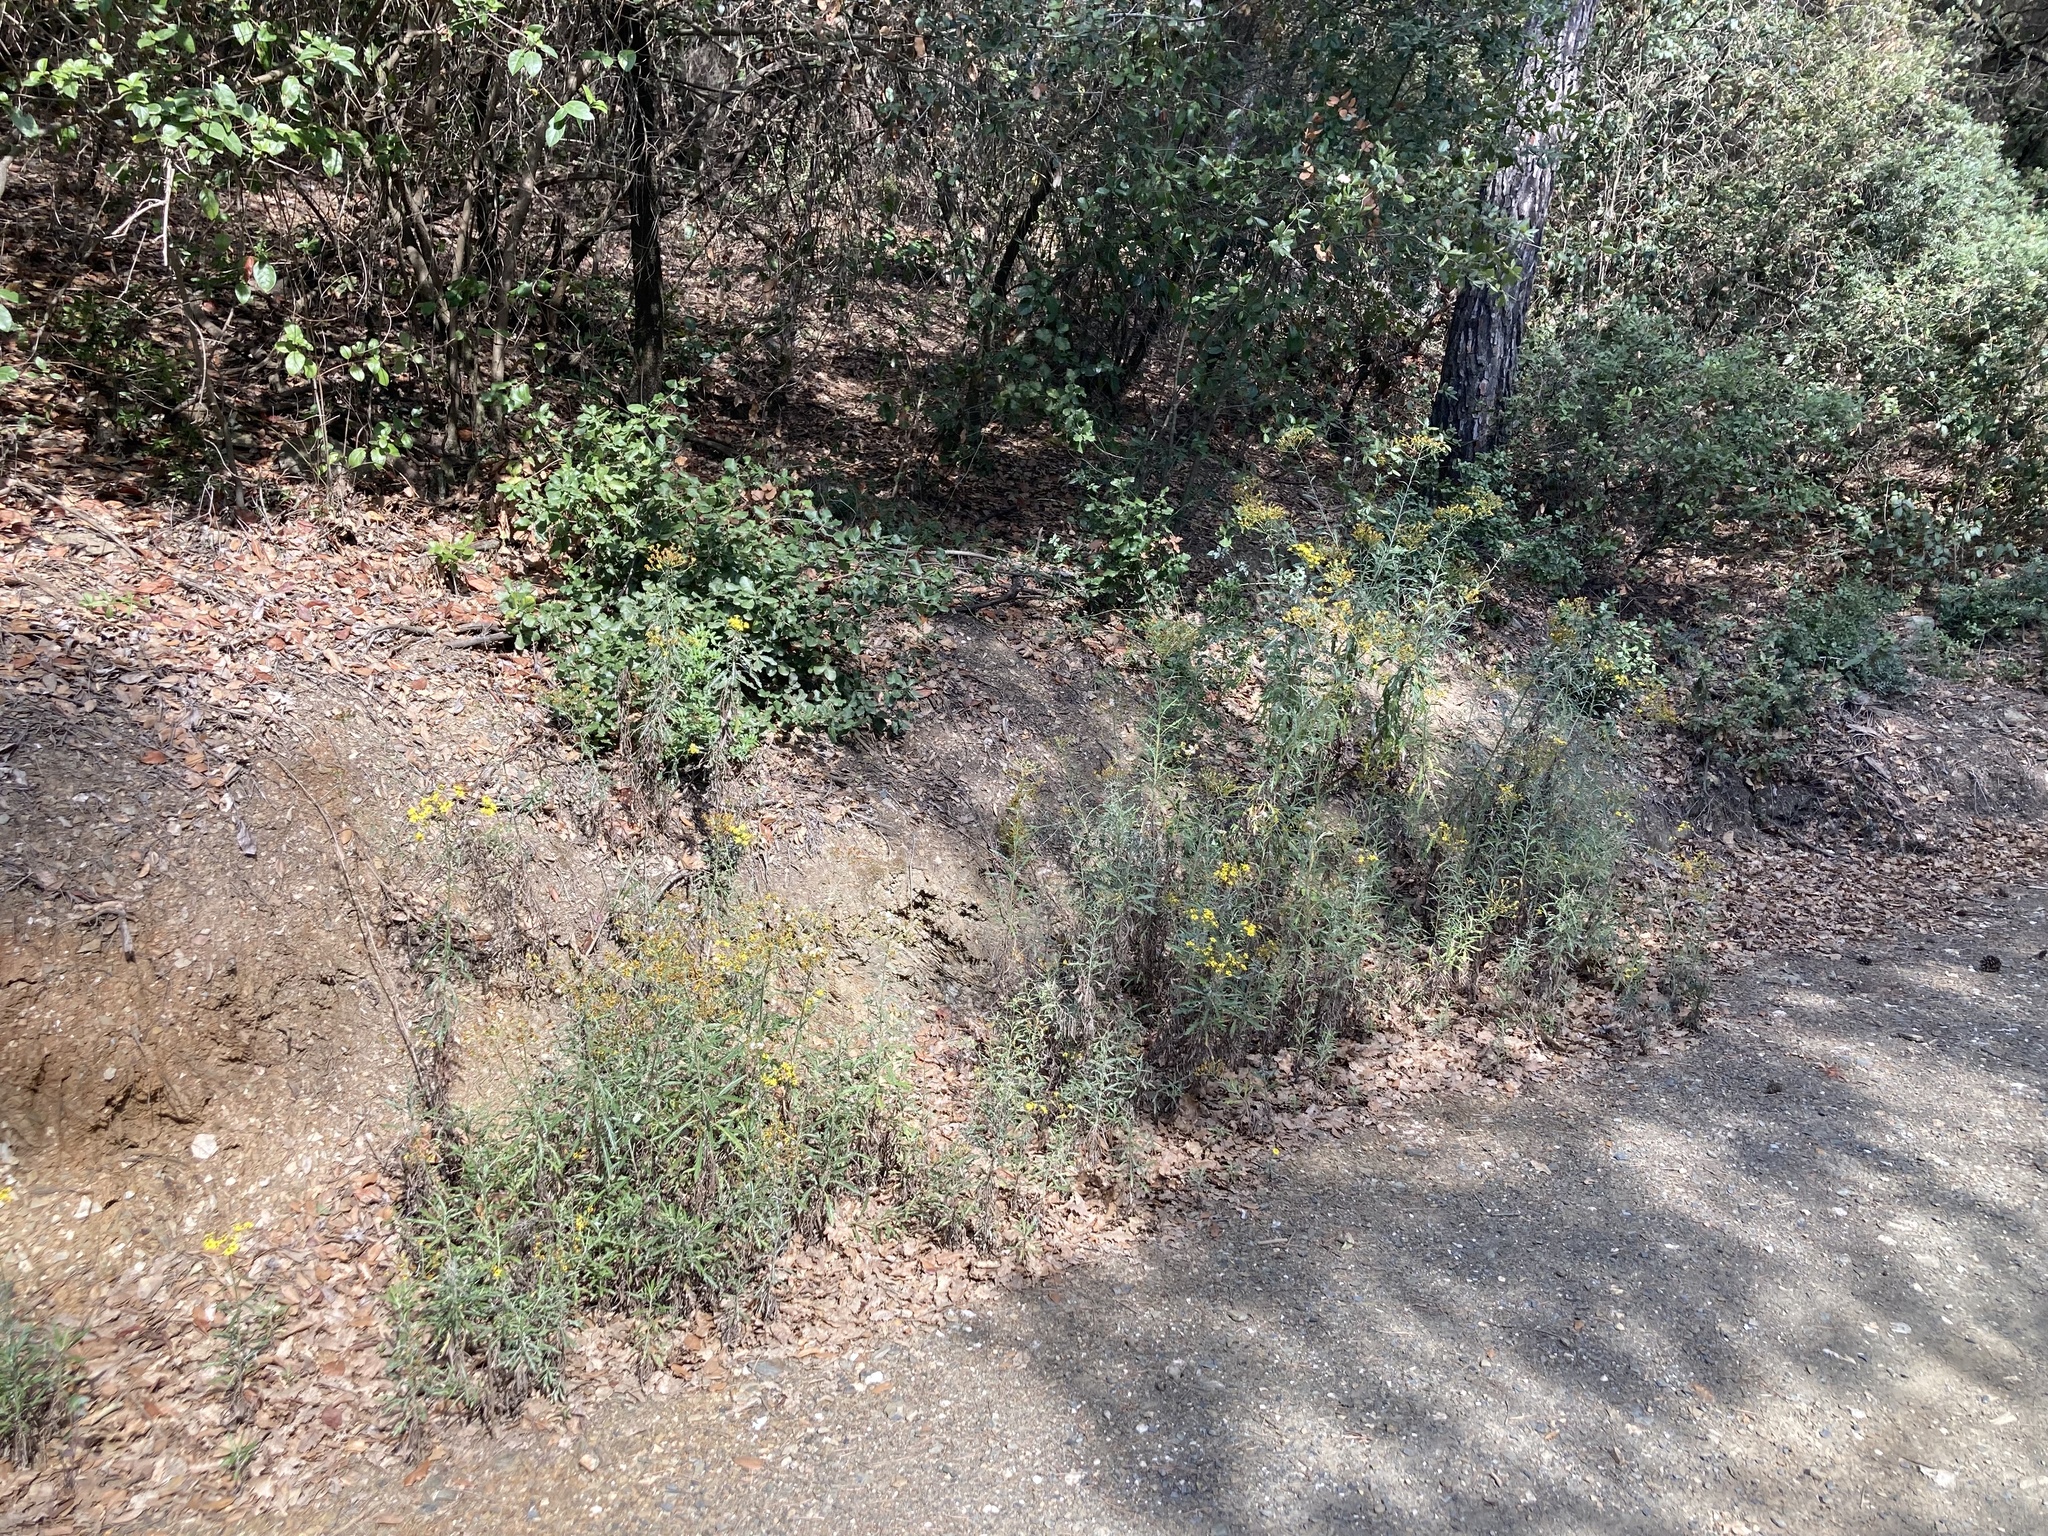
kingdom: Plantae
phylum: Tracheophyta
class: Magnoliopsida
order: Asterales
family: Asteraceae
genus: Senecio
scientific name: Senecio pterophorus
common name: Shoddy ragwort
